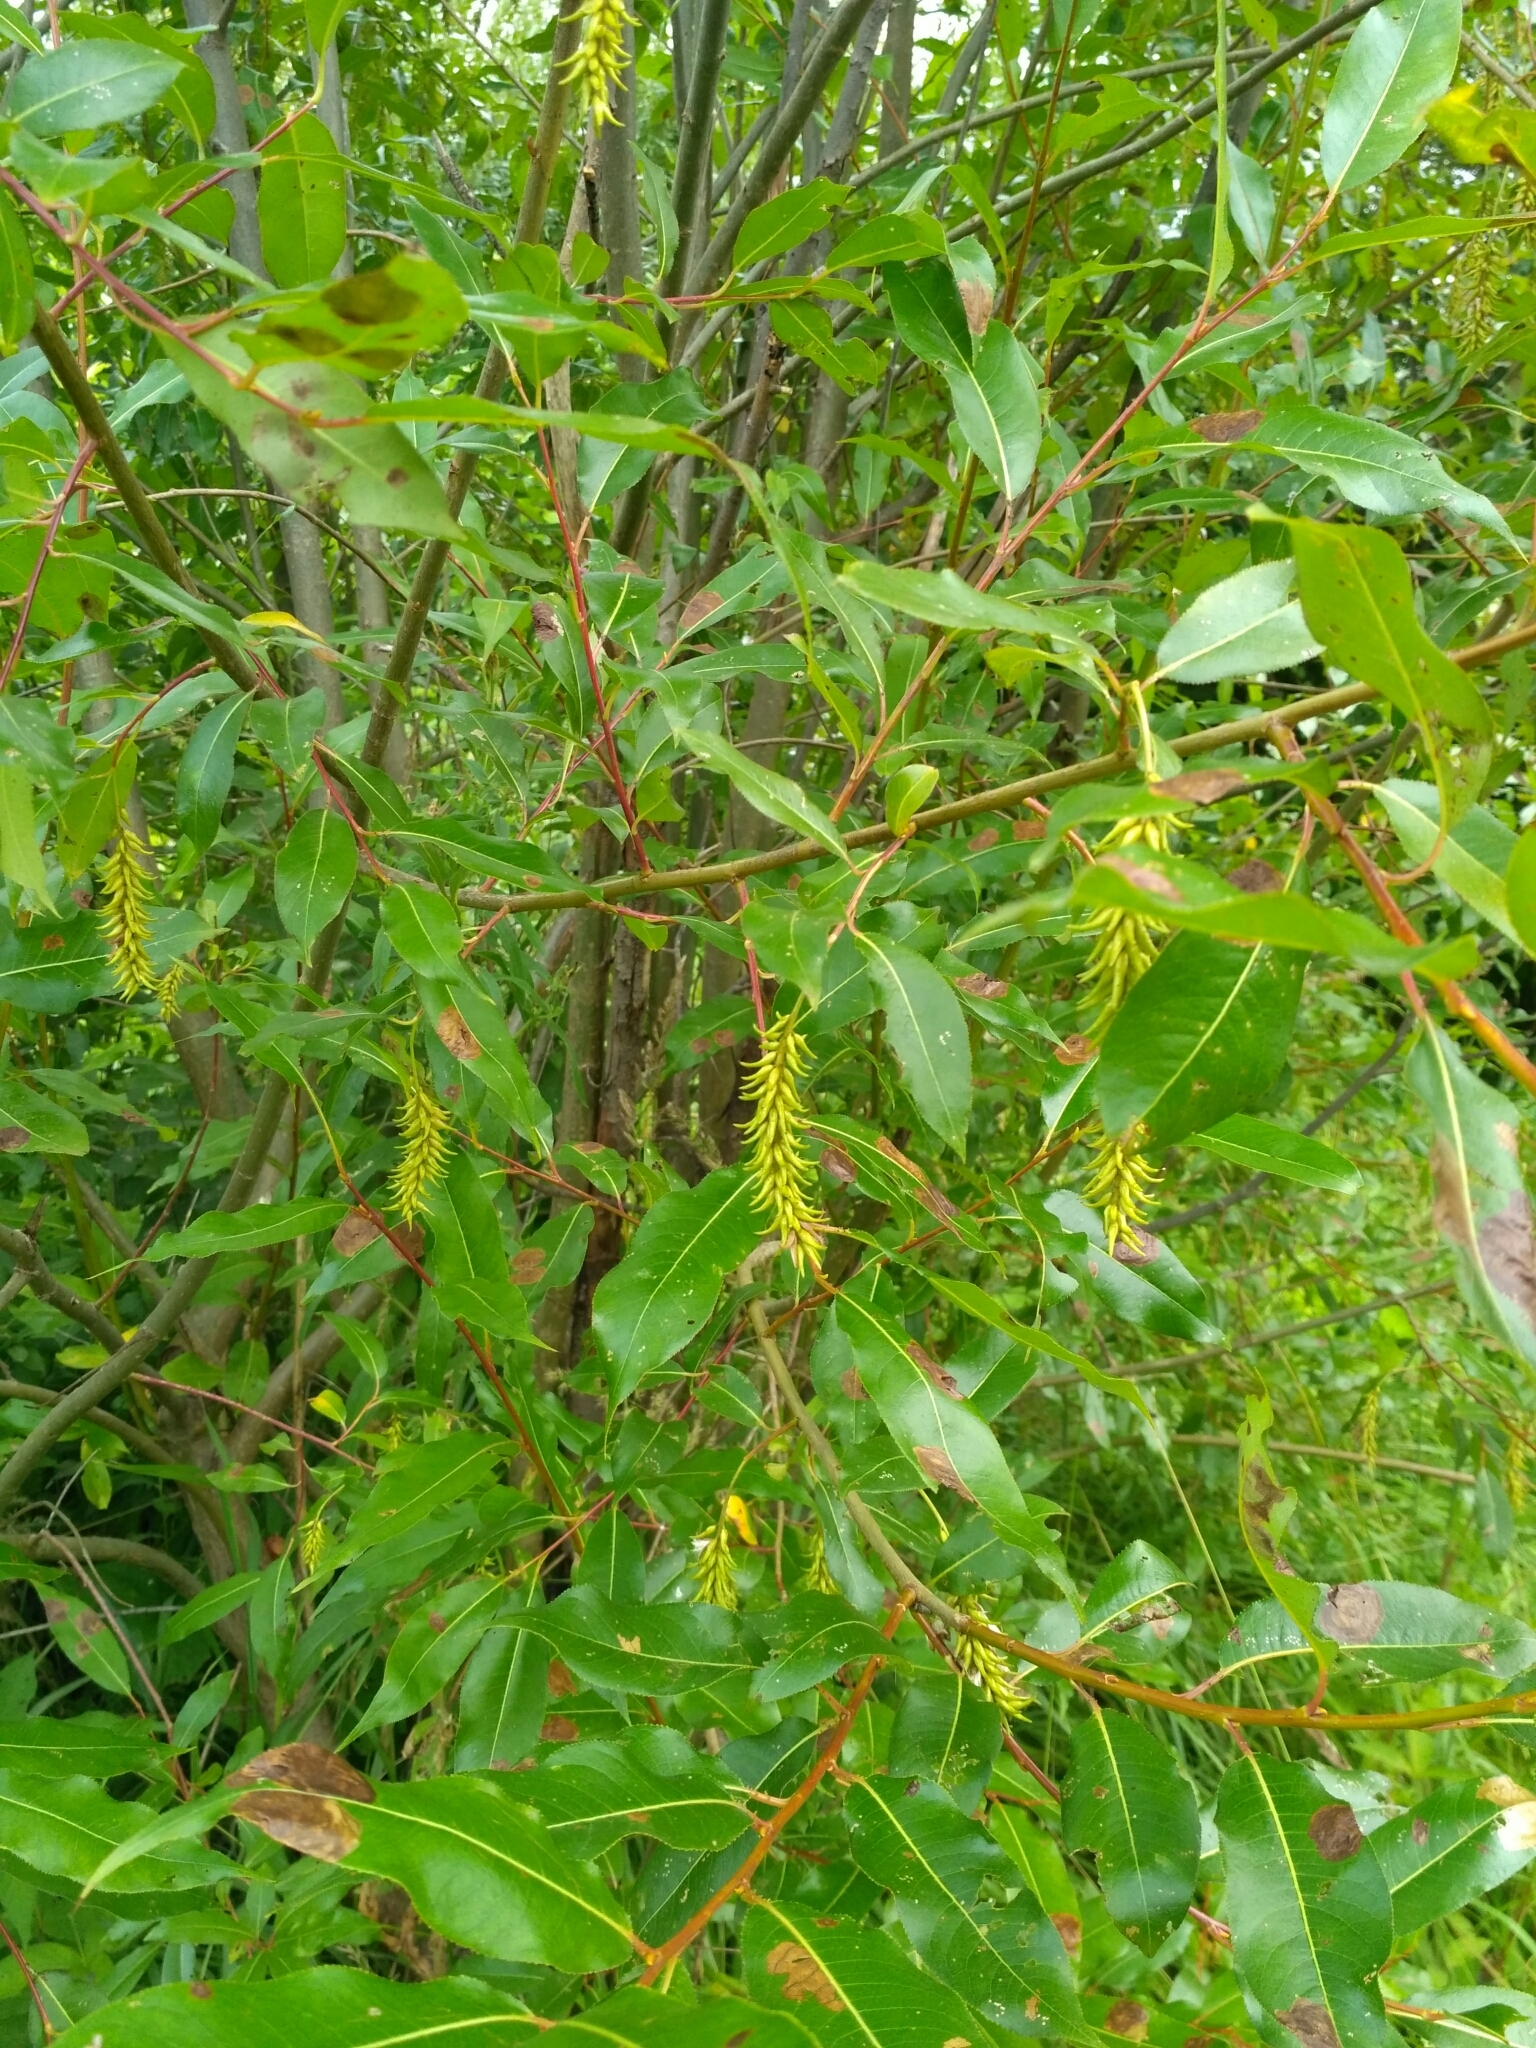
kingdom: Plantae
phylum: Tracheophyta
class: Magnoliopsida
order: Malpighiales
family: Salicaceae
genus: Salix
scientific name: Salix pentandra
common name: Bay willow
